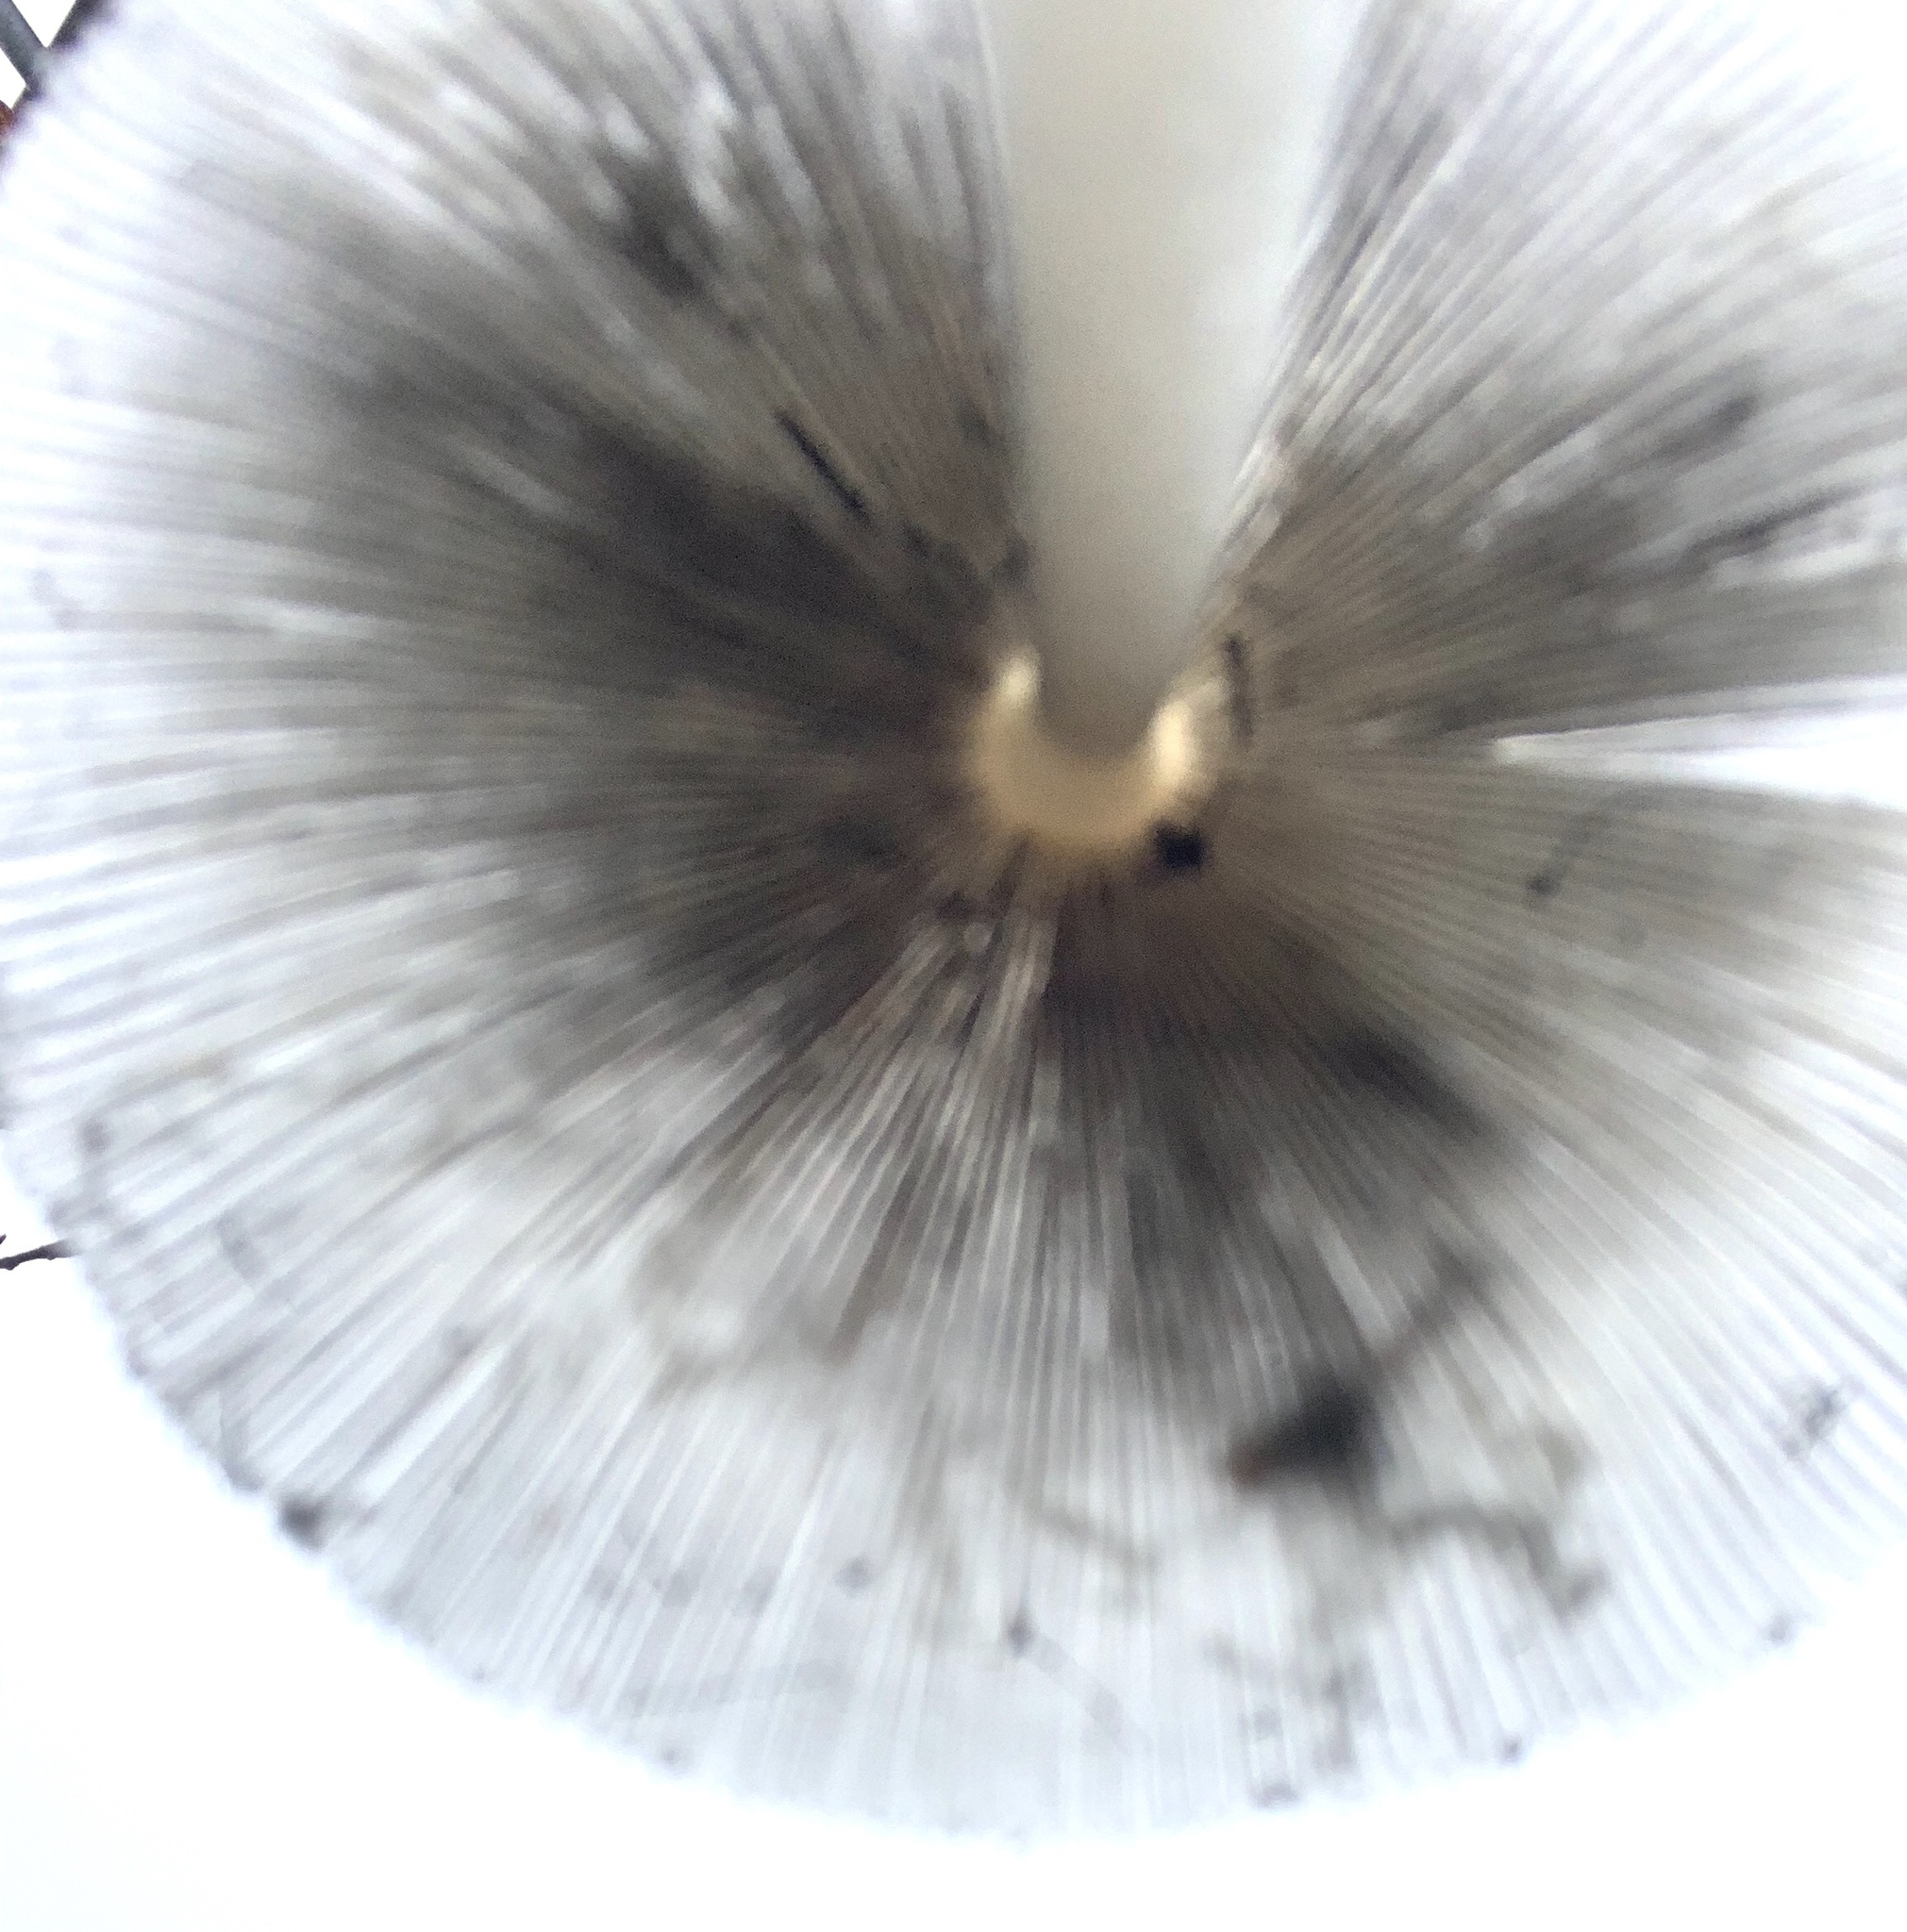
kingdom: Fungi
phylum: Basidiomycota
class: Agaricomycetes
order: Agaricales
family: Psathyrellaceae
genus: Coprinopsis
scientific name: Coprinopsis lagopus
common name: Hare'sfoot inkcap
